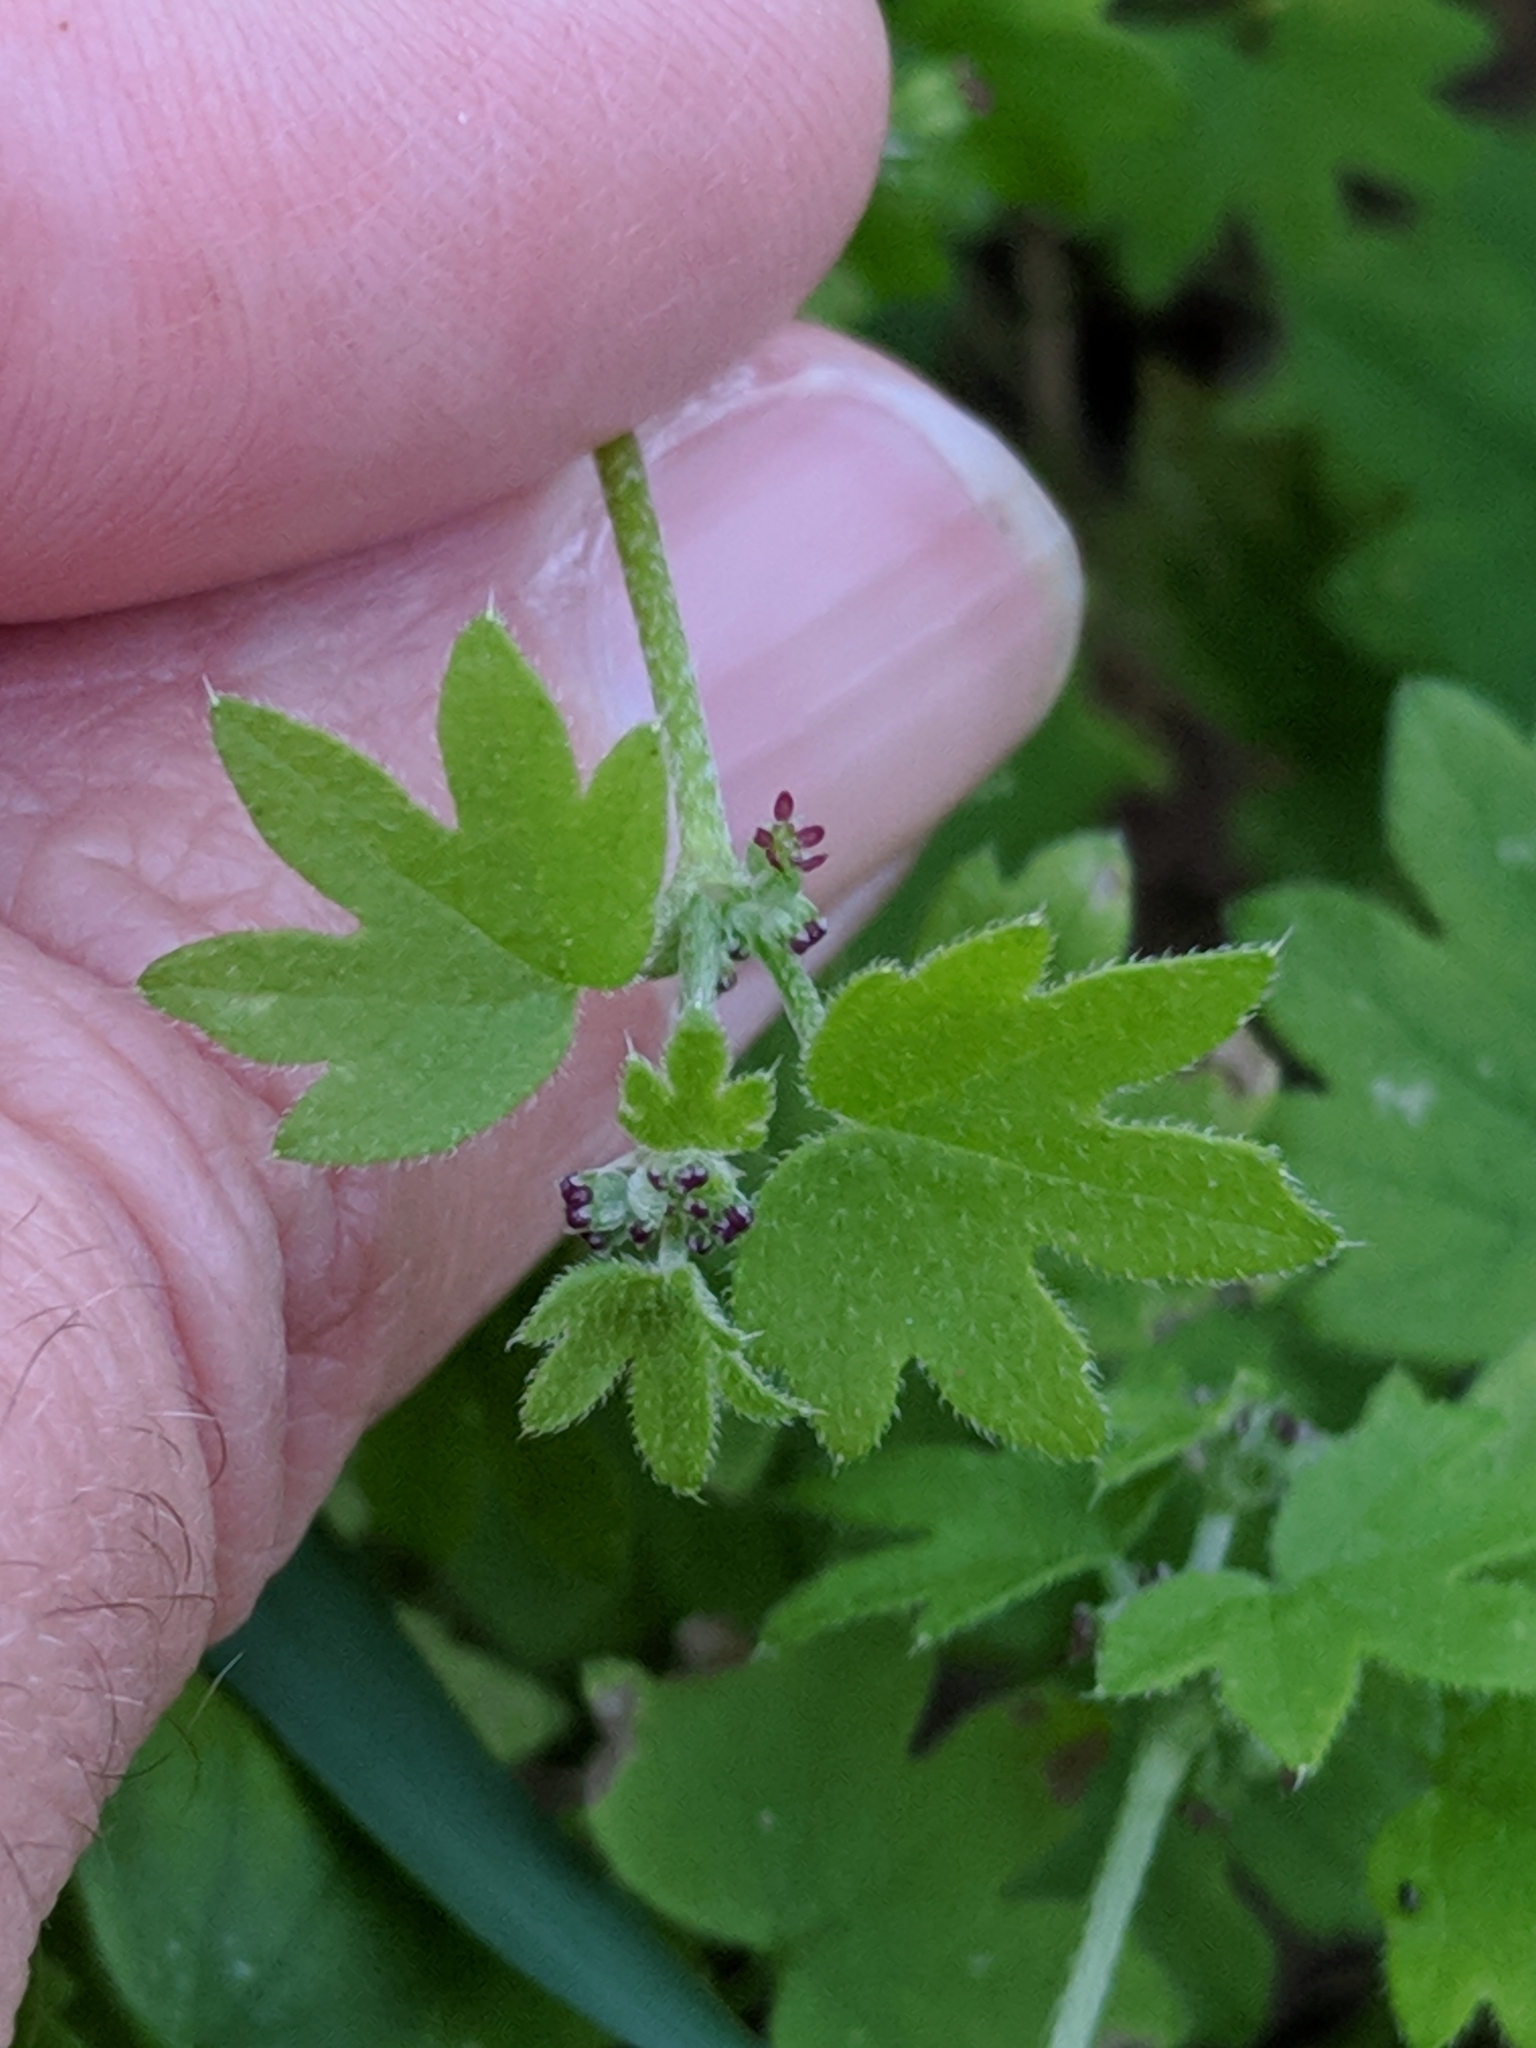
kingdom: Plantae
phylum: Tracheophyta
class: Magnoliopsida
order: Apiales
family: Apiaceae
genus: Bowlesia
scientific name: Bowlesia incana
